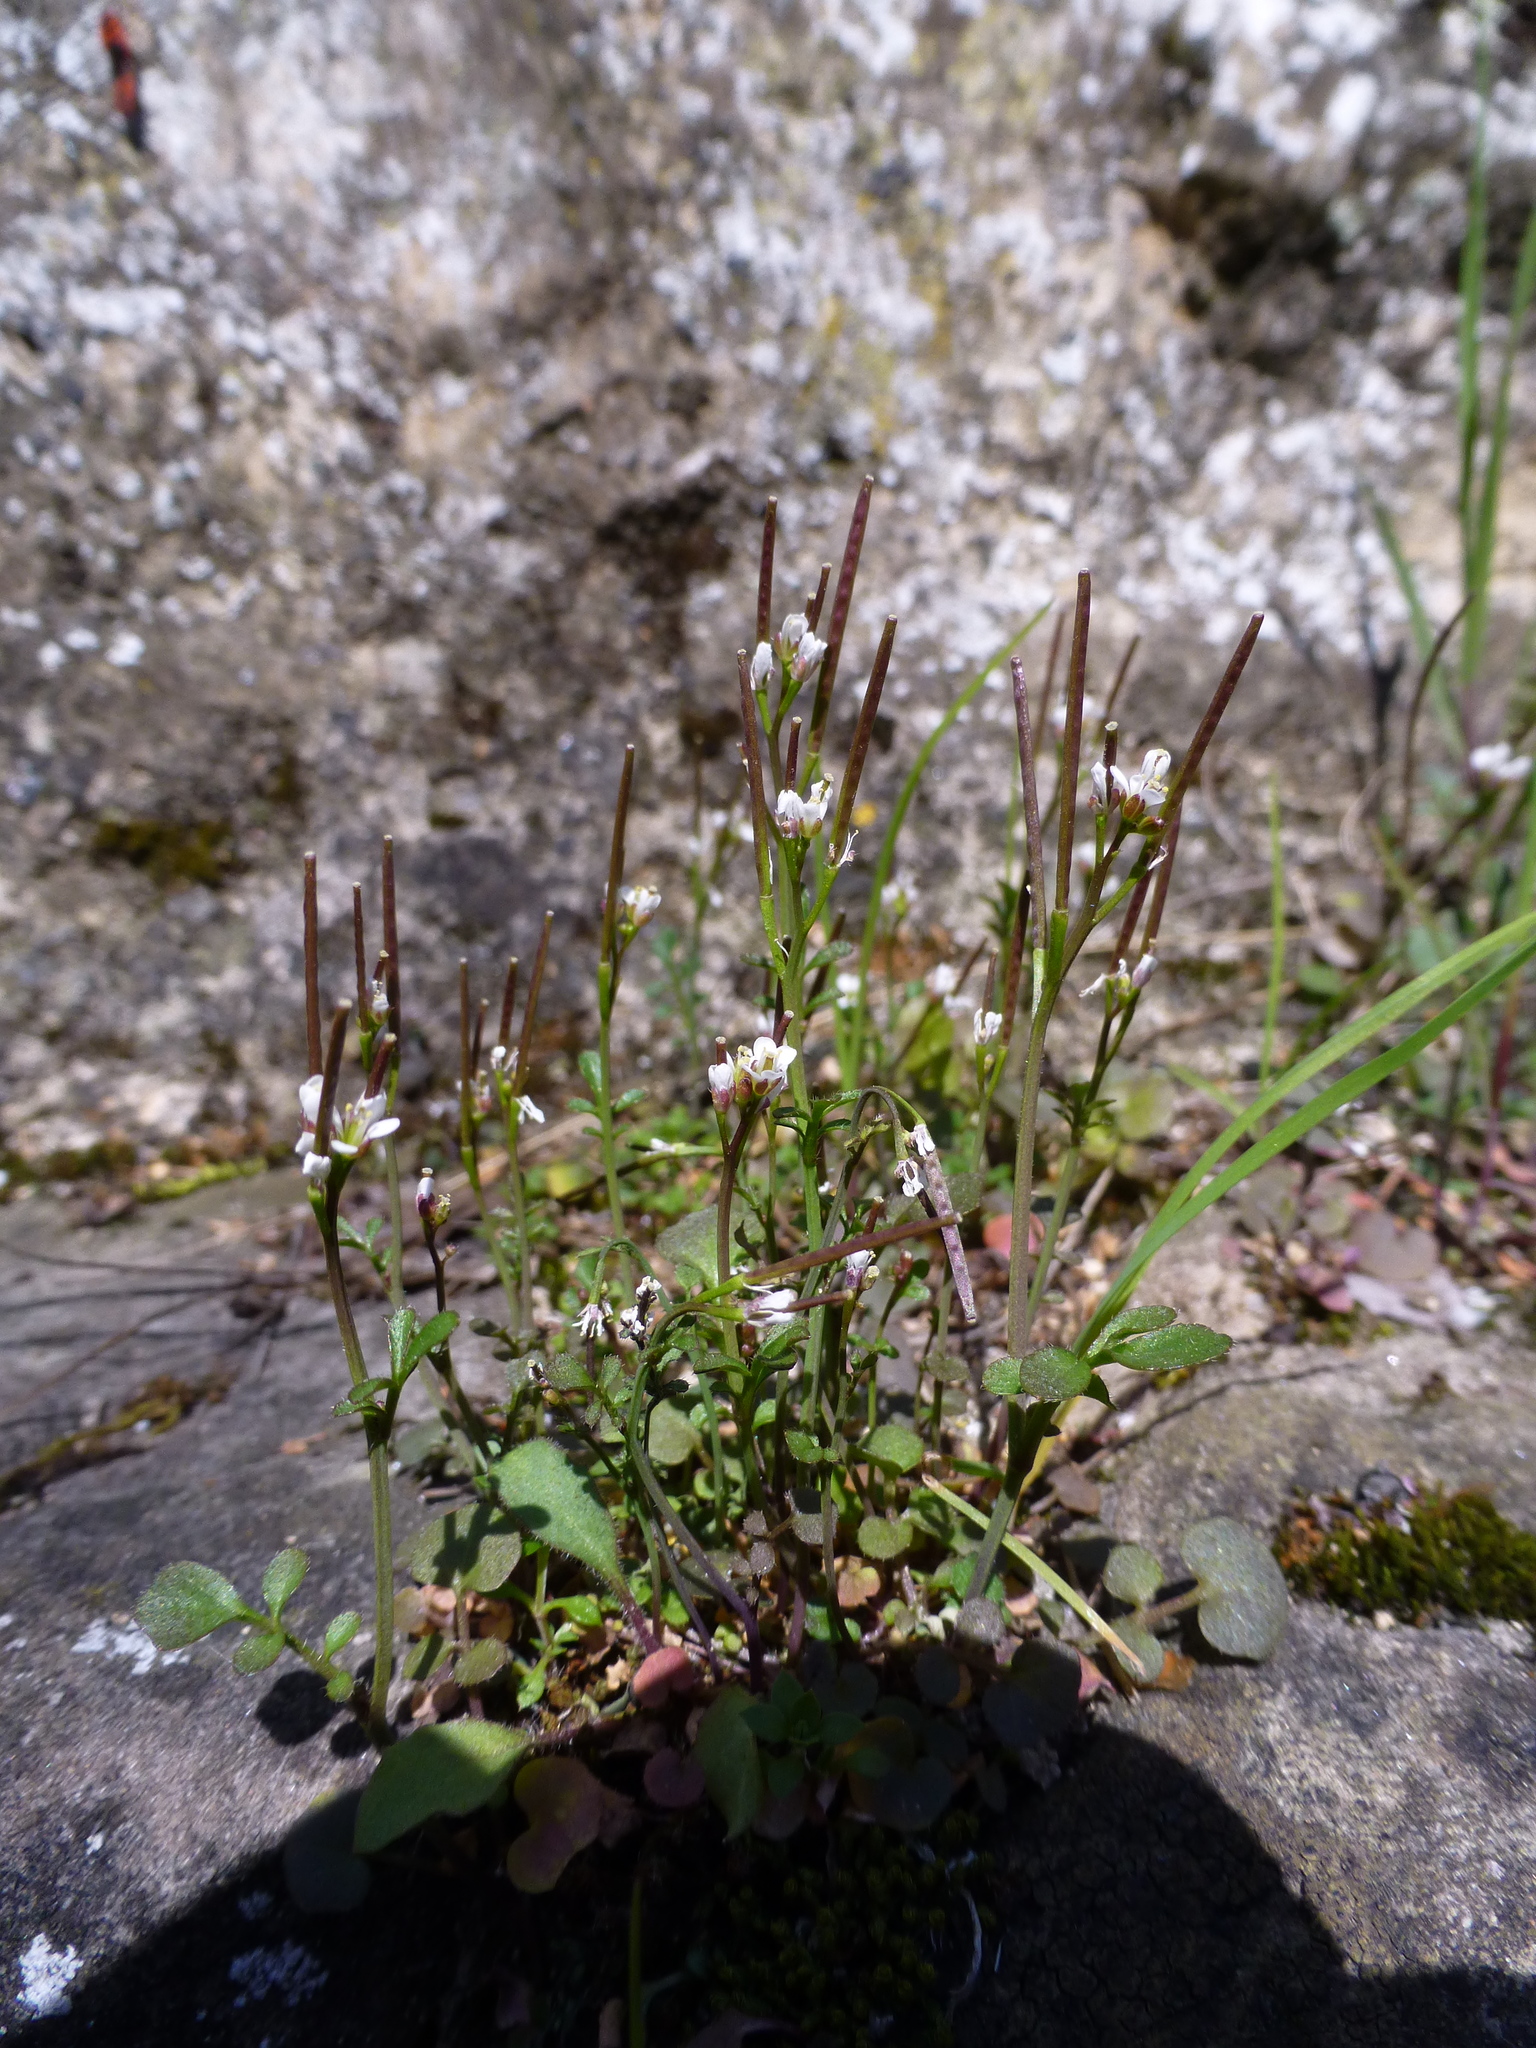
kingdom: Plantae
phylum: Tracheophyta
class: Magnoliopsida
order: Brassicales
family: Brassicaceae
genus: Cardamine
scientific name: Cardamine hirsuta
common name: Hairy bittercress
